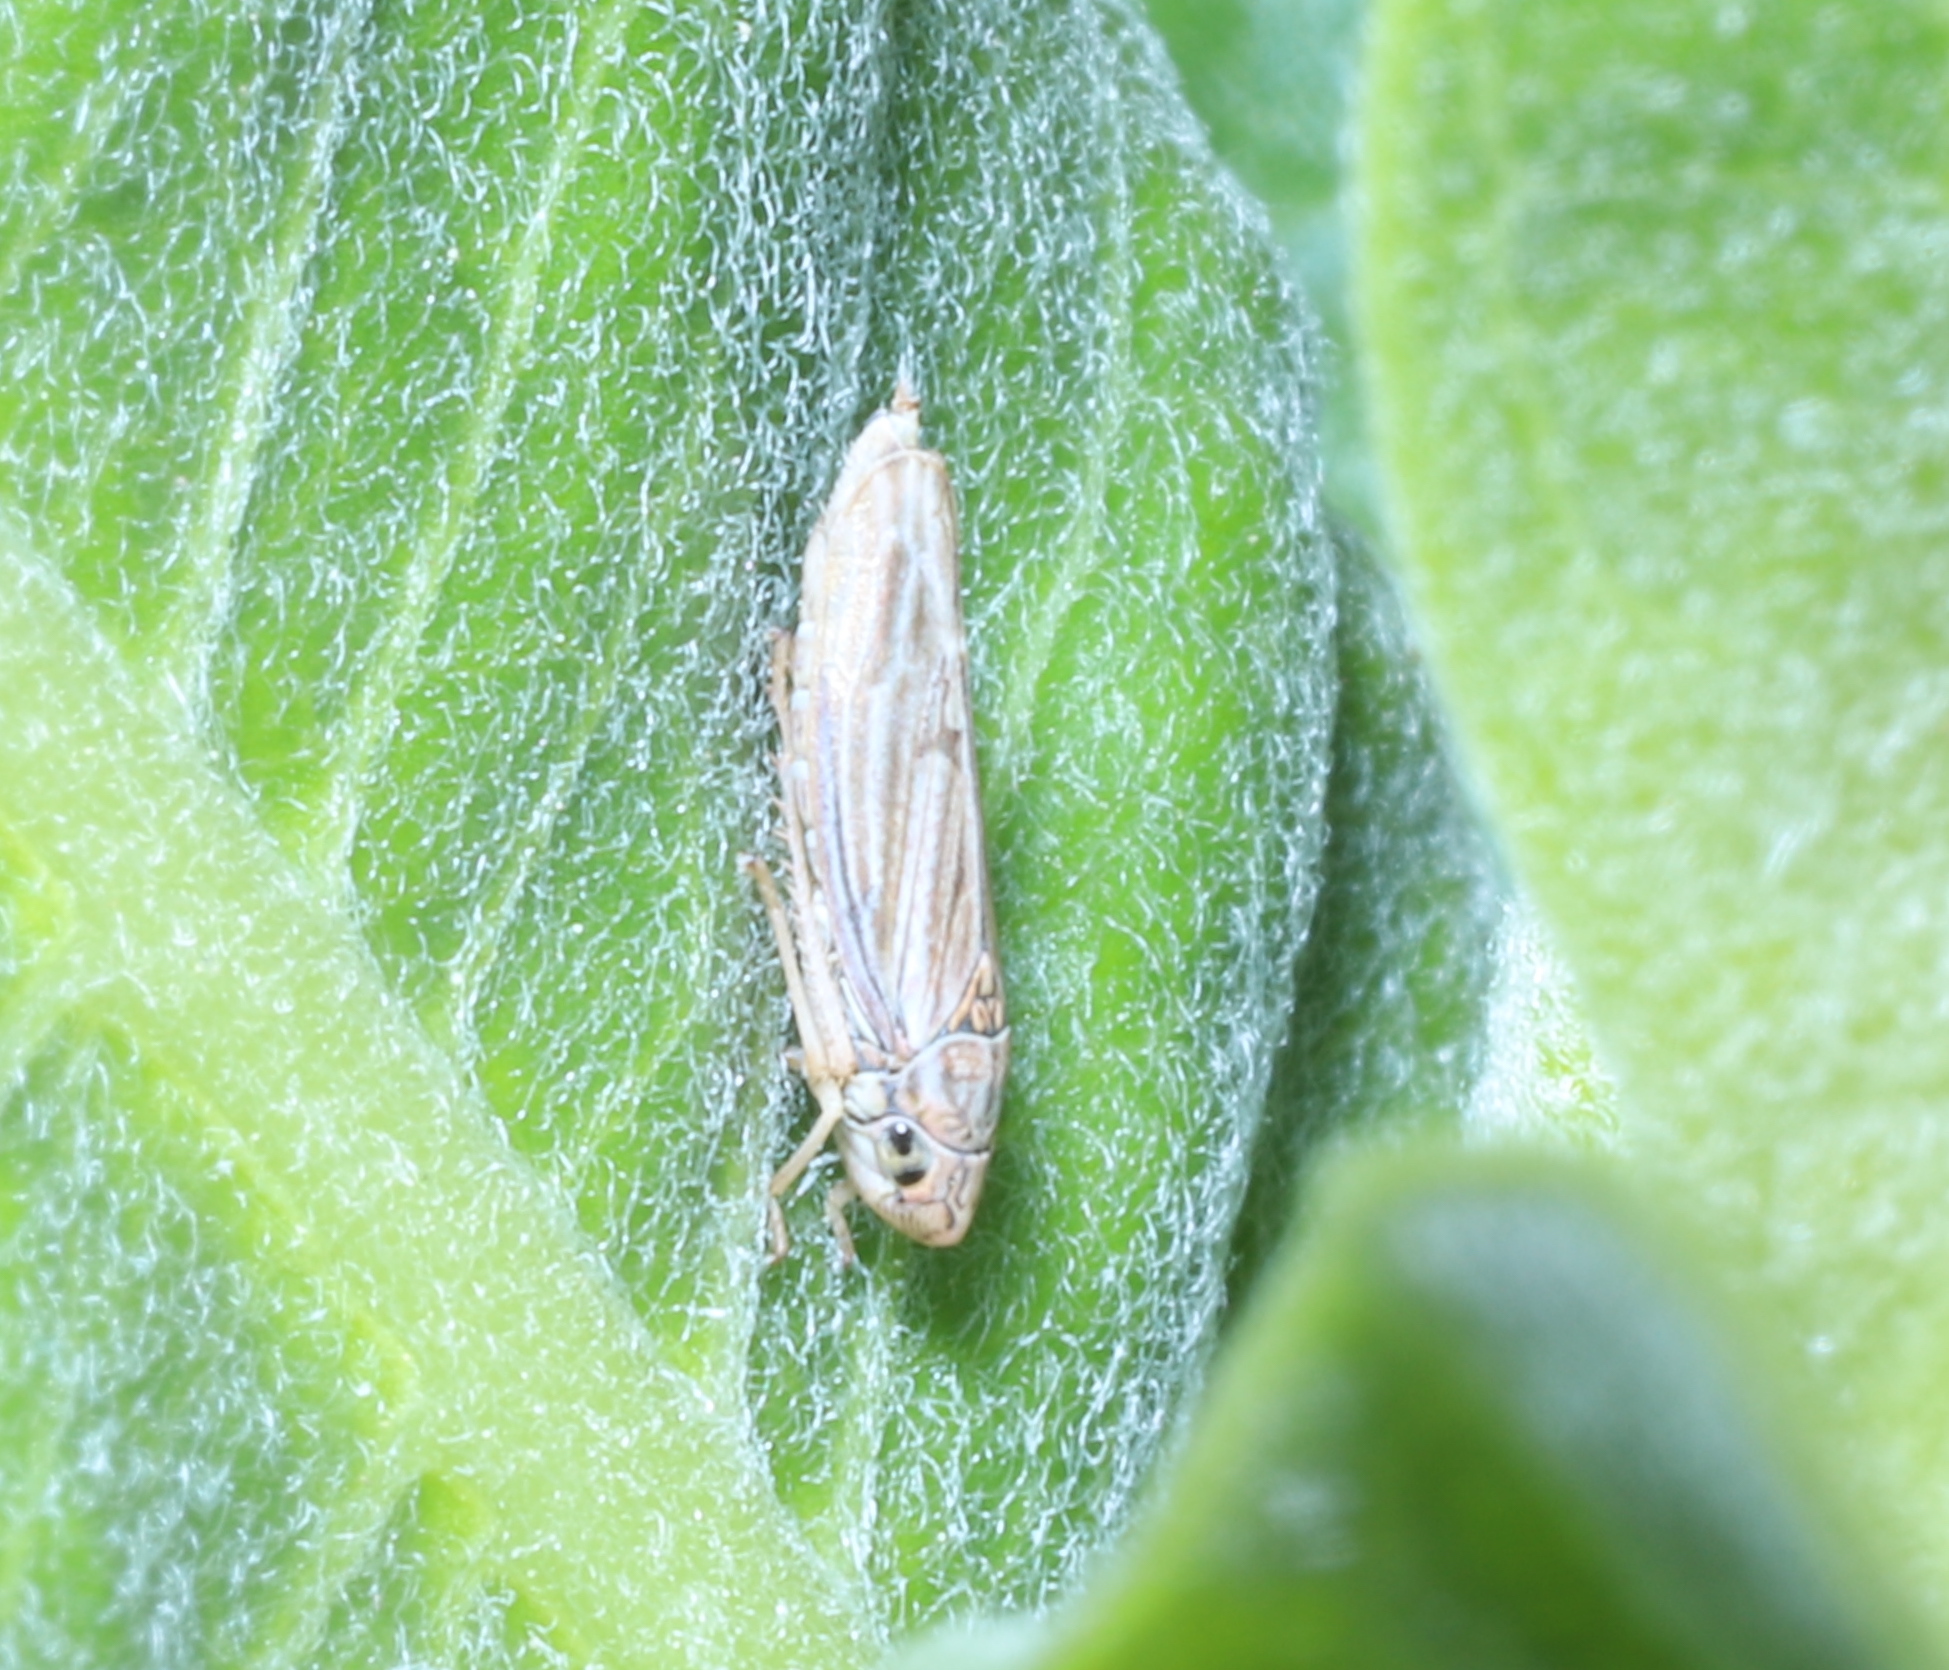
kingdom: Animalia
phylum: Arthropoda
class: Insecta
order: Hemiptera
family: Cicadellidae
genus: Neokolla
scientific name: Neokolla hieroglyphica
